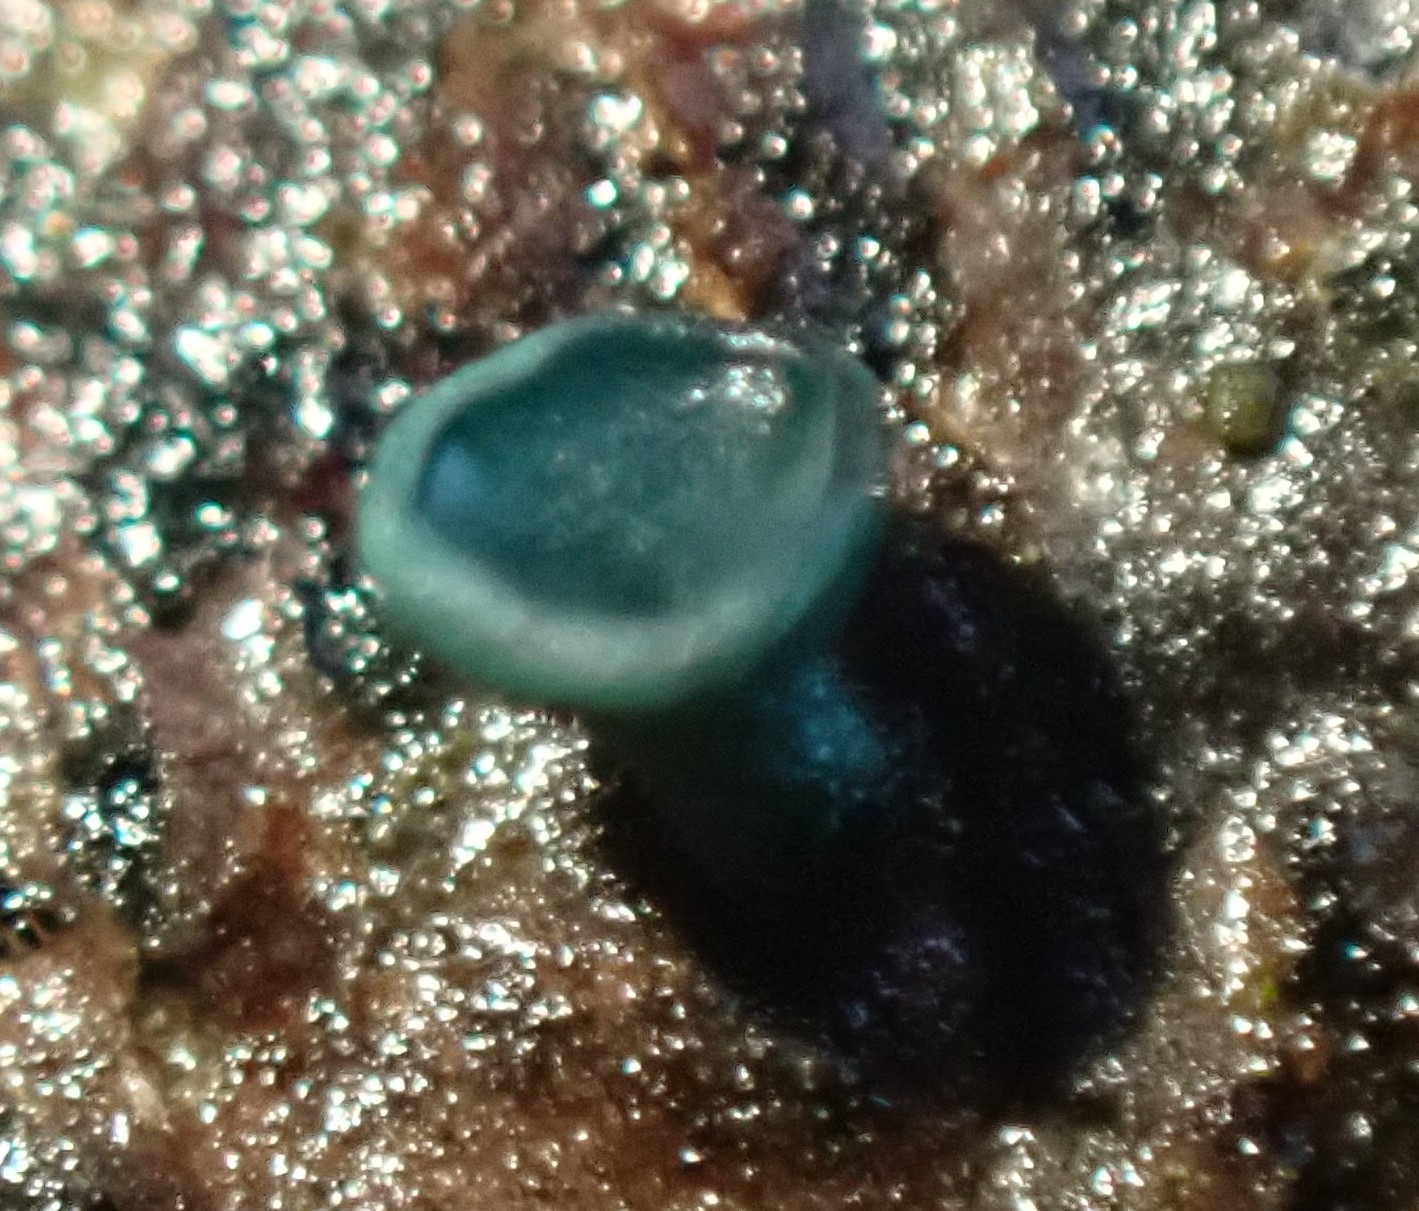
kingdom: Fungi
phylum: Ascomycota
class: Leotiomycetes
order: Helotiales
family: Chlorociboriaceae
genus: Chlorociboria
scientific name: Chlorociboria aeruginascens
